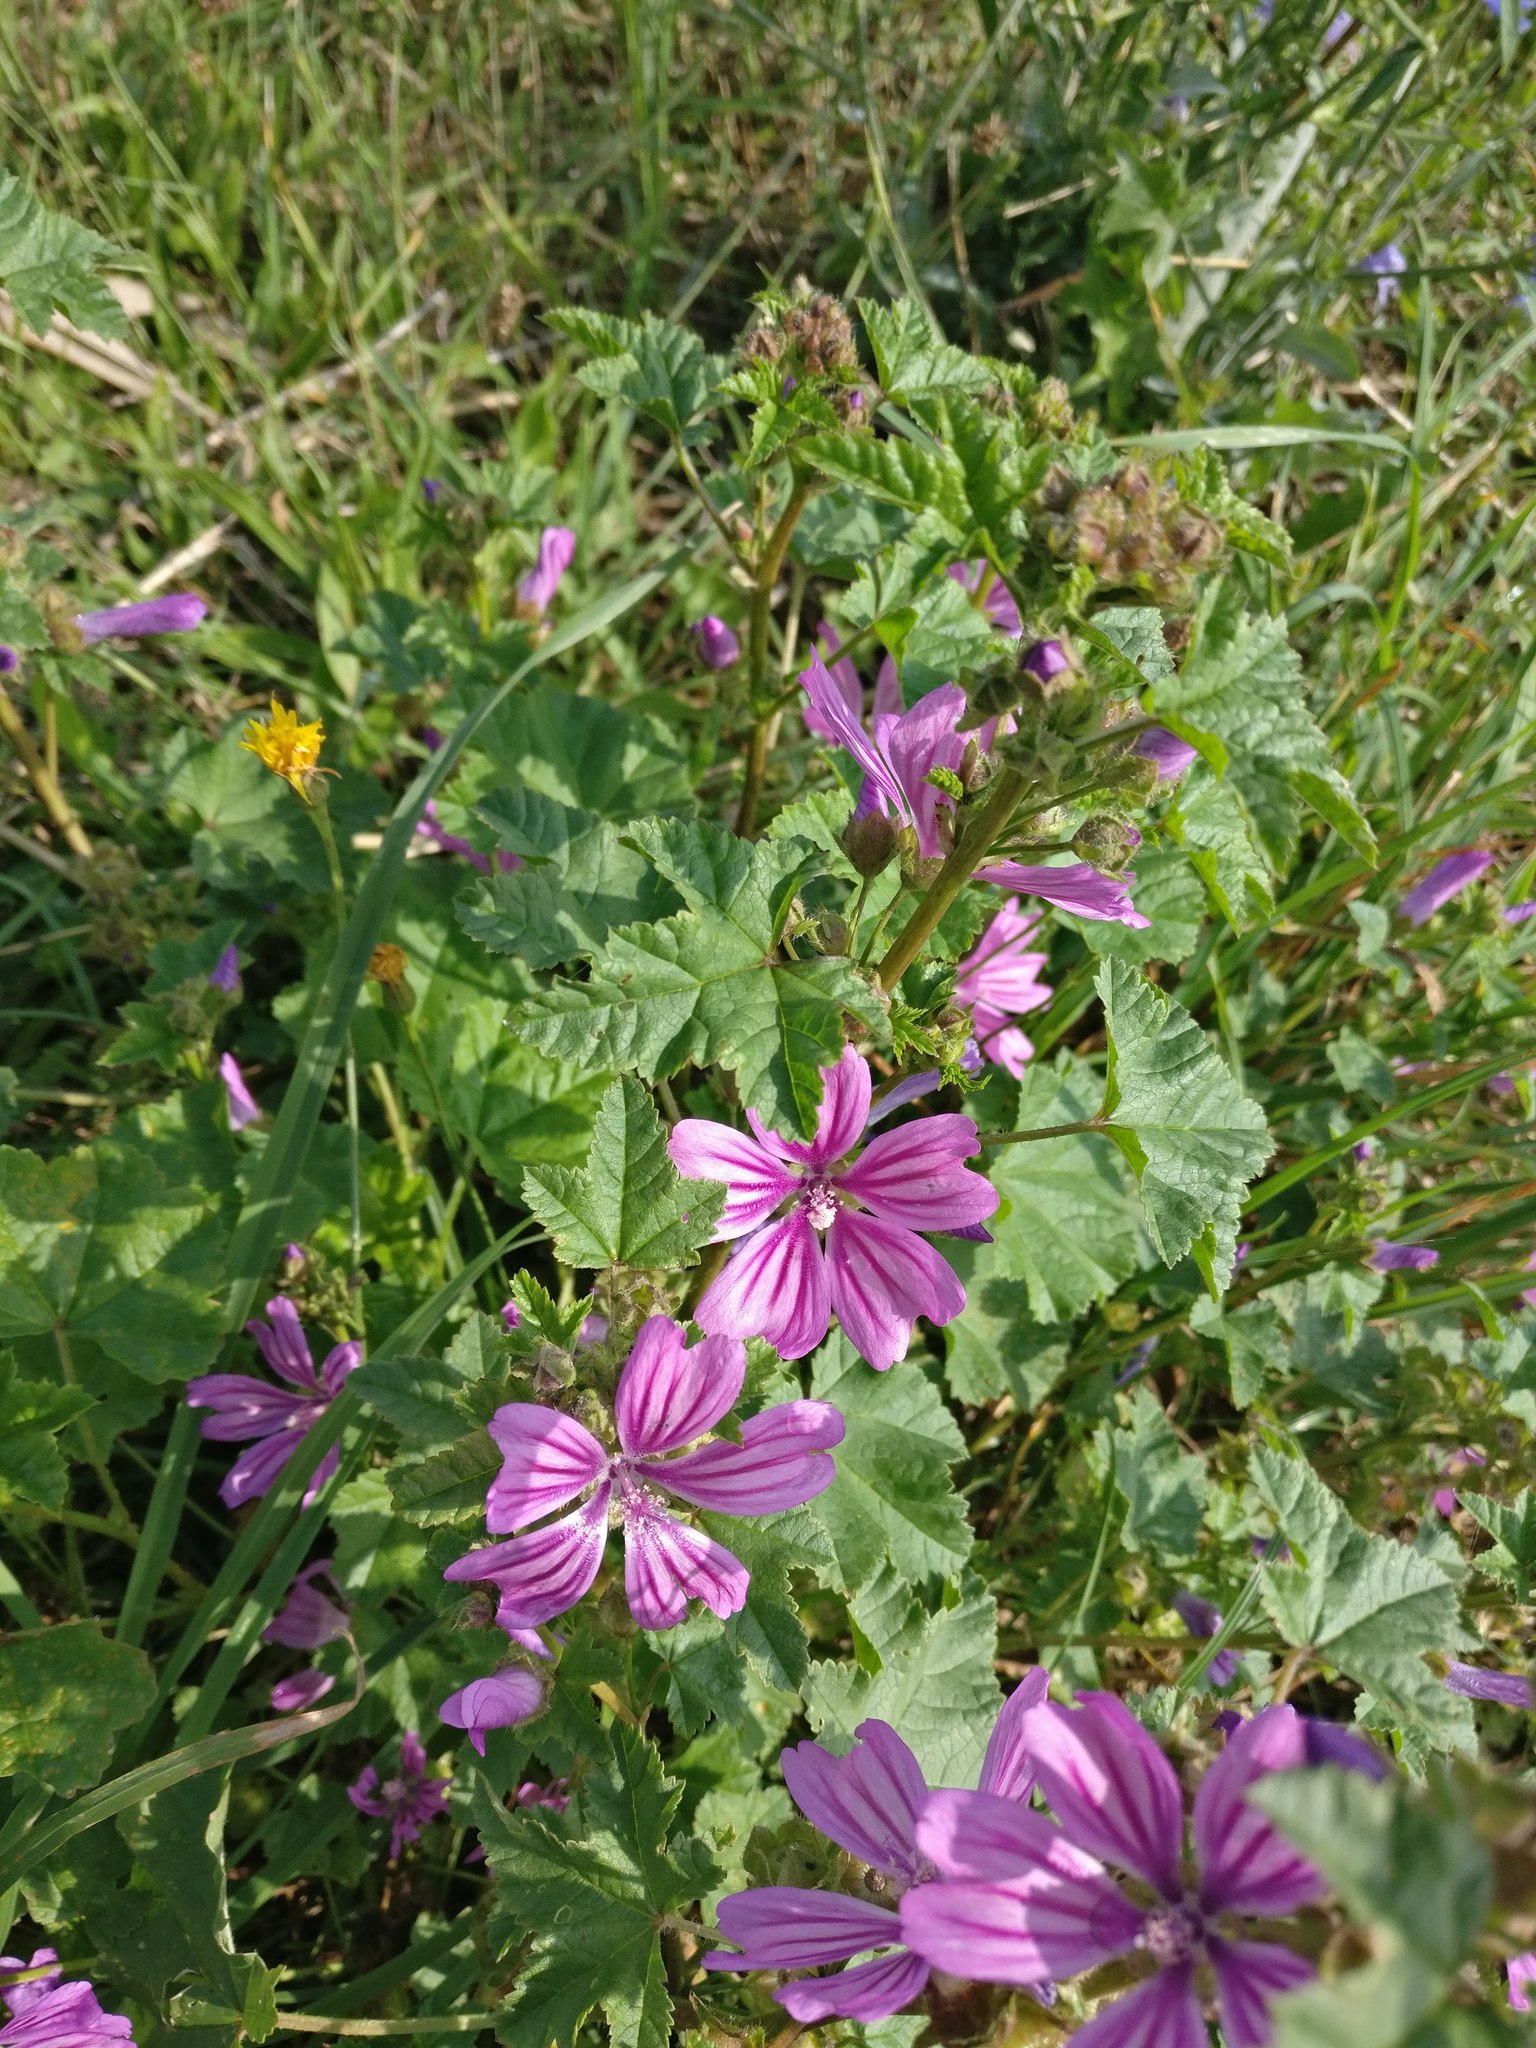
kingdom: Plantae
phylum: Tracheophyta
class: Magnoliopsida
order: Malvales
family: Malvaceae
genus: Malva
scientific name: Malva sylvestris
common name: Common mallow
